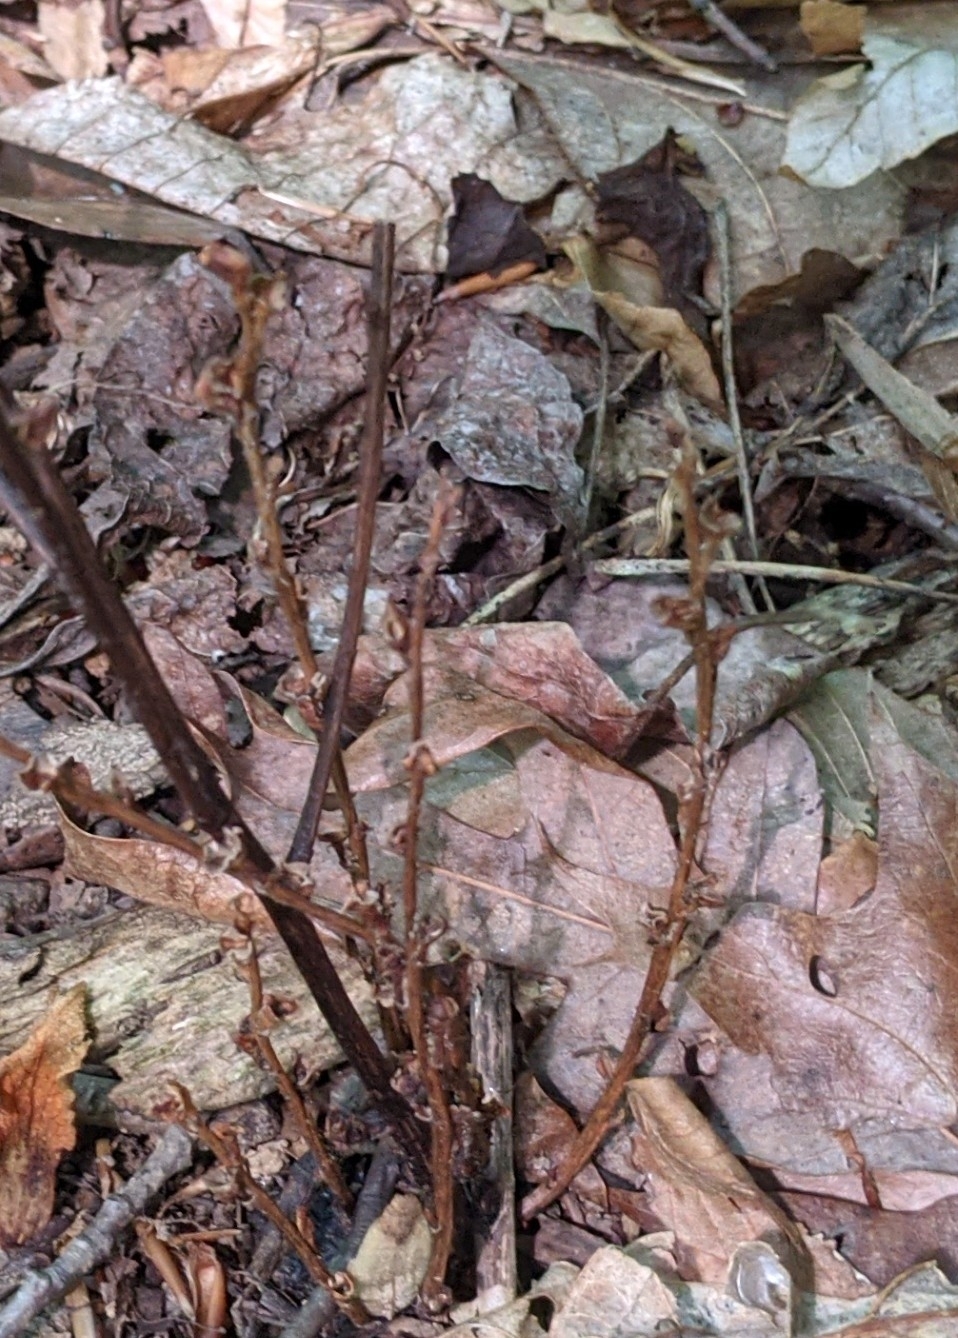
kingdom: Plantae
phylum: Tracheophyta
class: Magnoliopsida
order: Lamiales
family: Orobanchaceae
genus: Epifagus
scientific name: Epifagus virginiana
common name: Beechdrops
